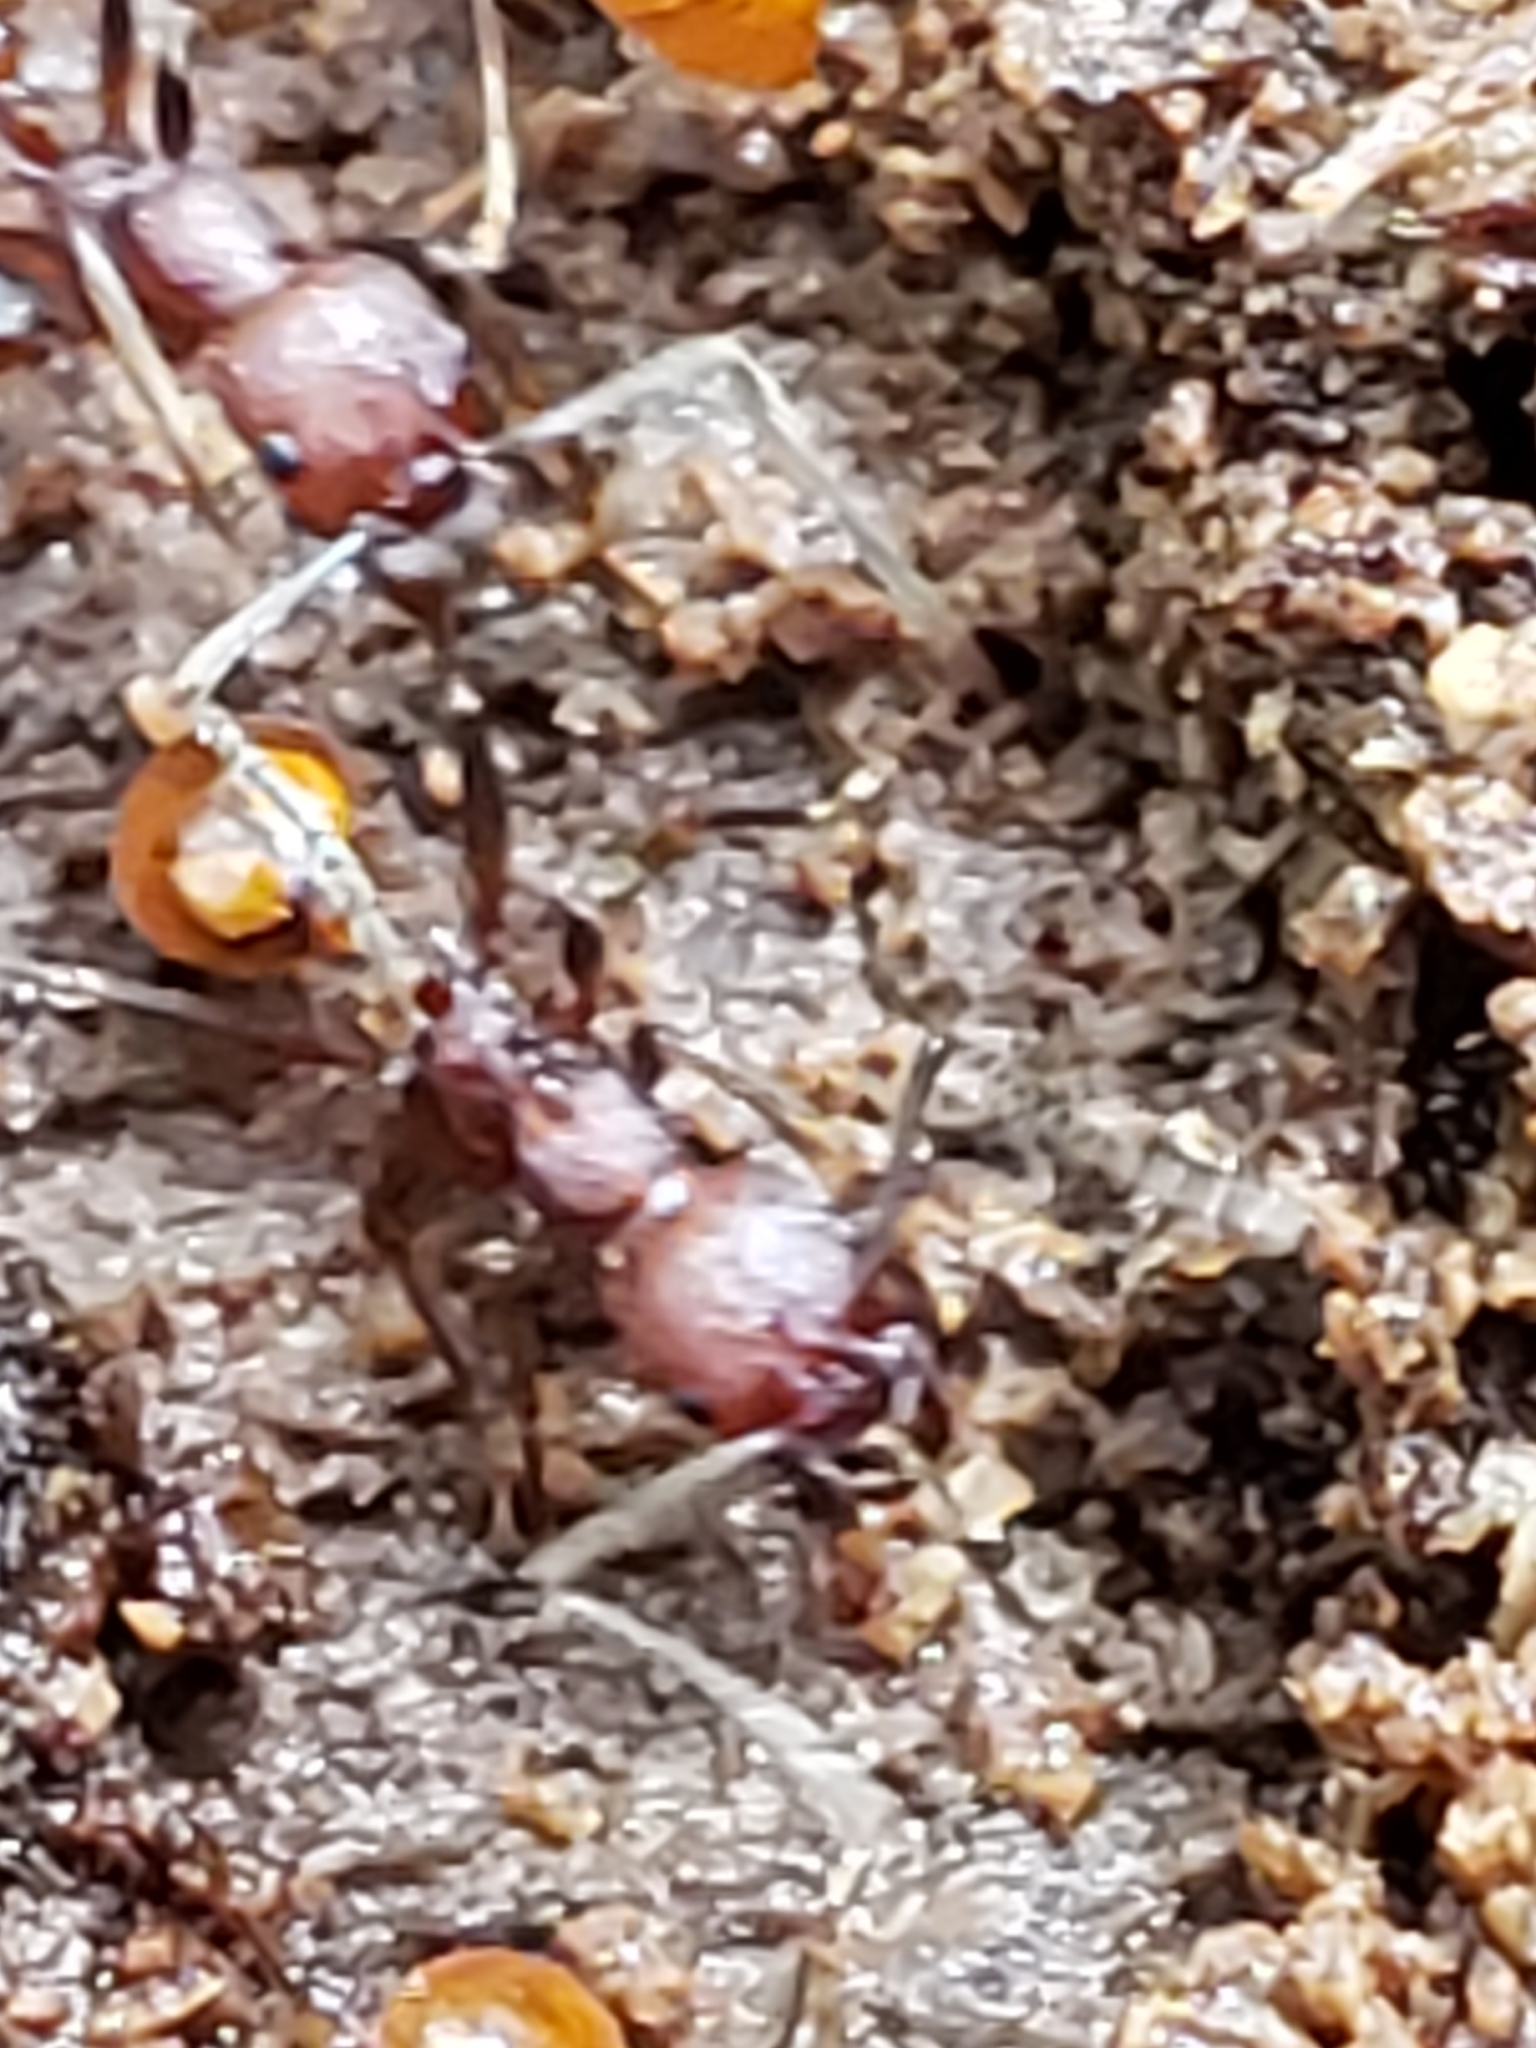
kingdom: Animalia
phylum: Arthropoda
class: Insecta
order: Hymenoptera
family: Formicidae
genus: Aphaenogaster
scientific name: Aphaenogaster fulva
